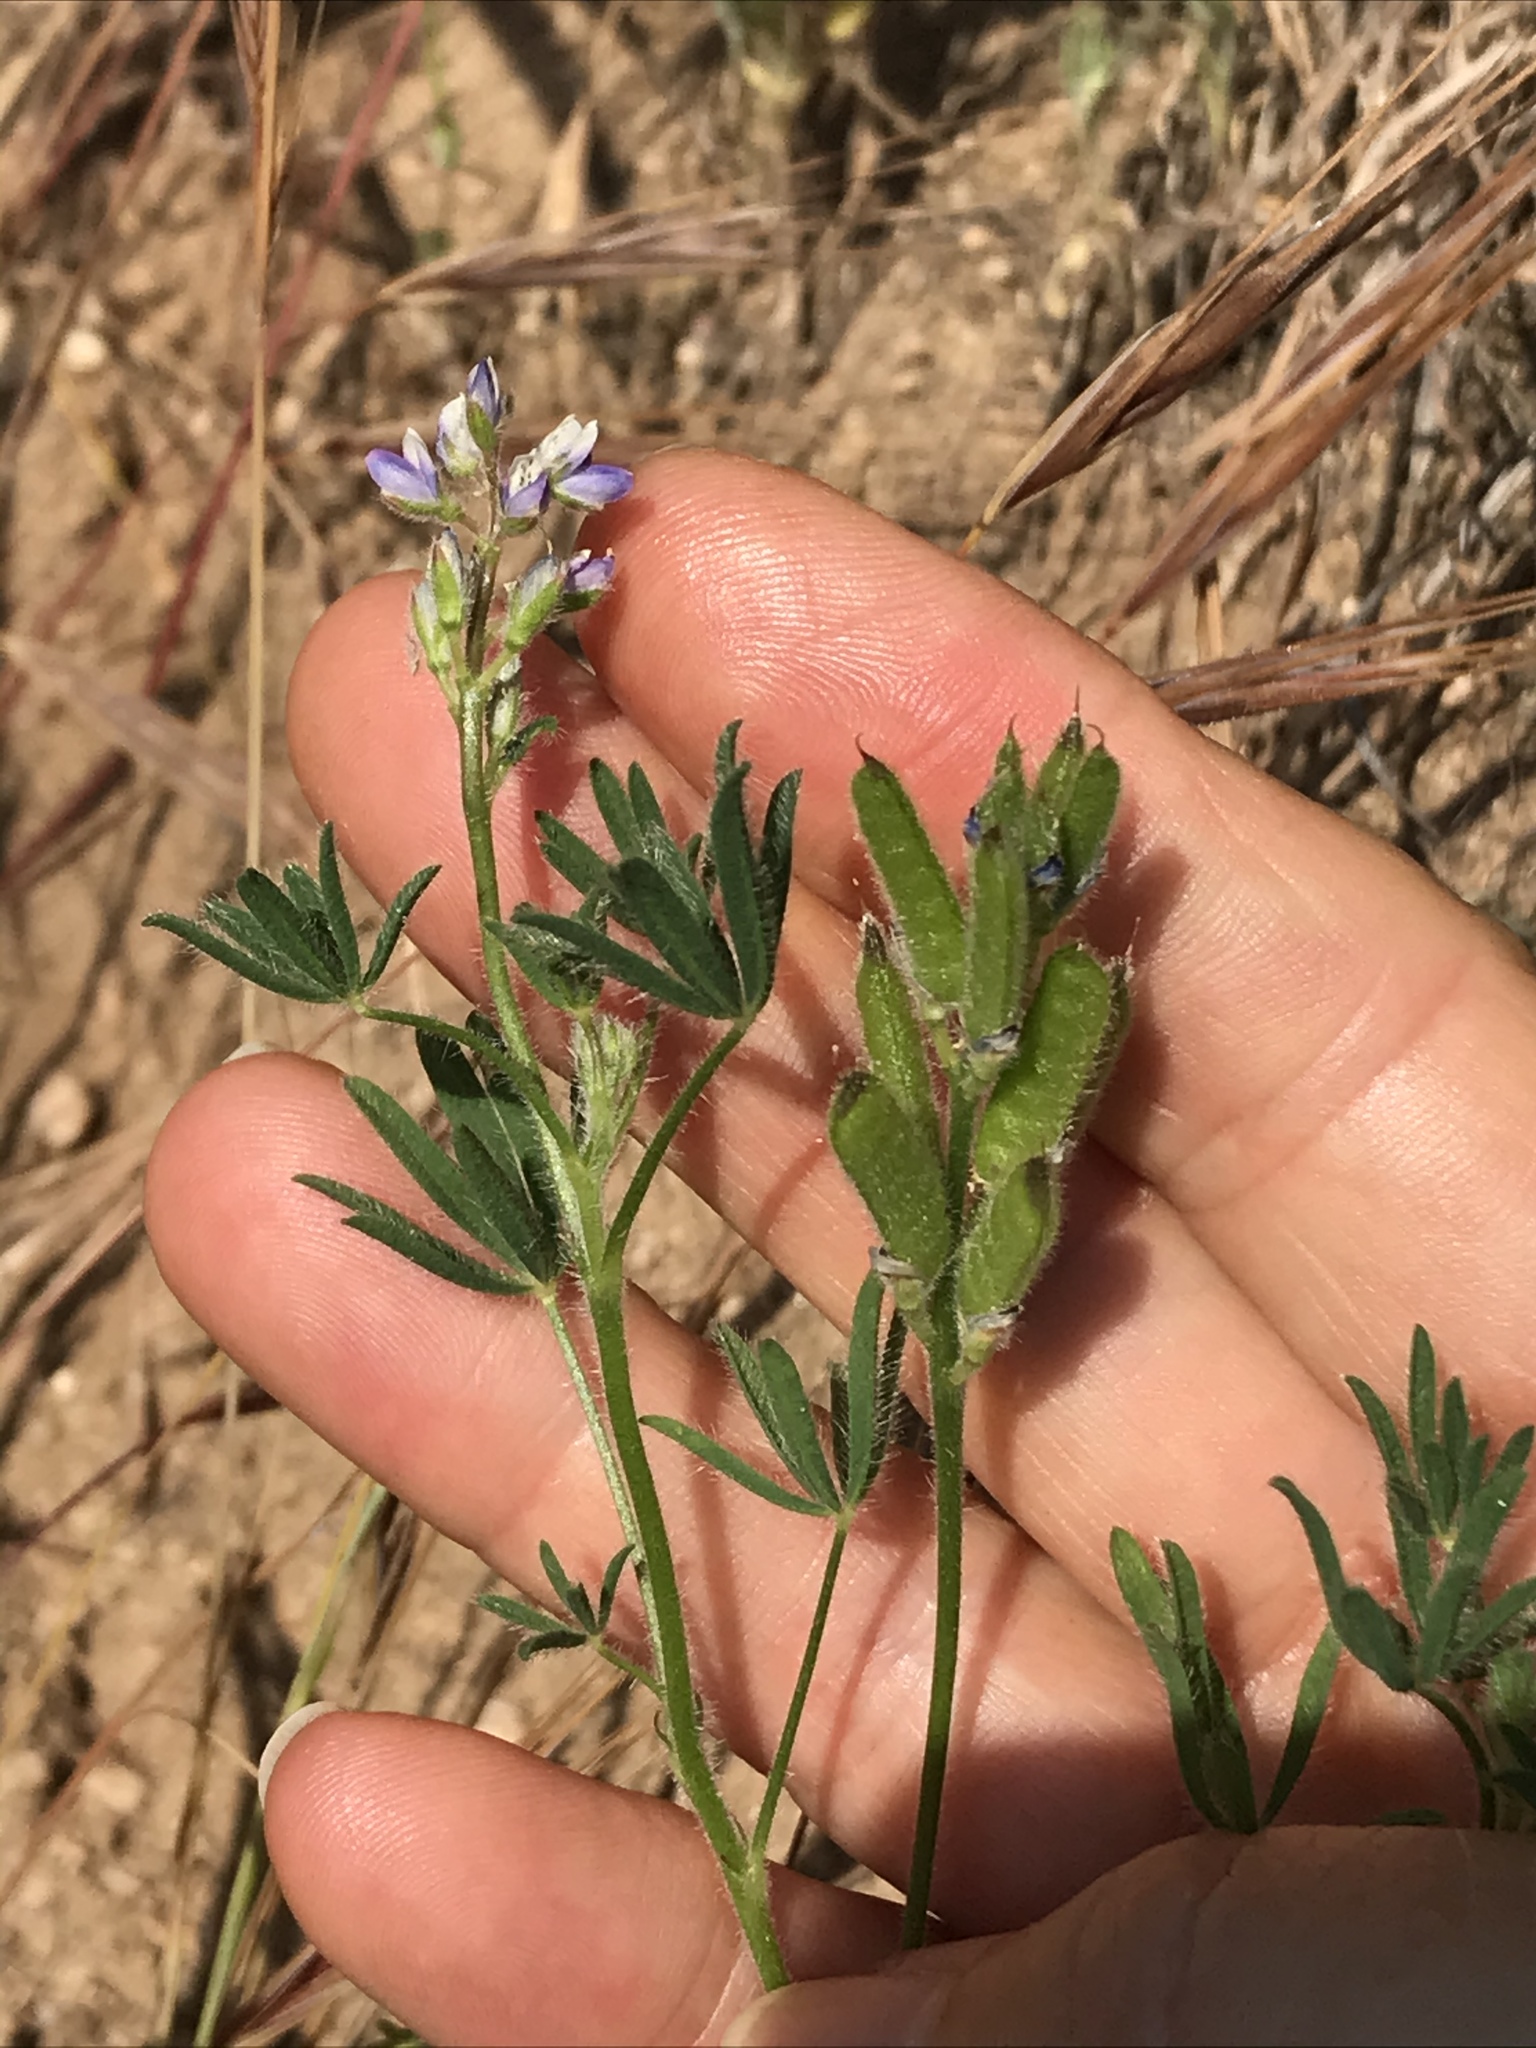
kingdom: Plantae
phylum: Tracheophyta
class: Magnoliopsida
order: Fabales
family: Fabaceae
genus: Lupinus
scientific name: Lupinus bicolor
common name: Miniature lupine
